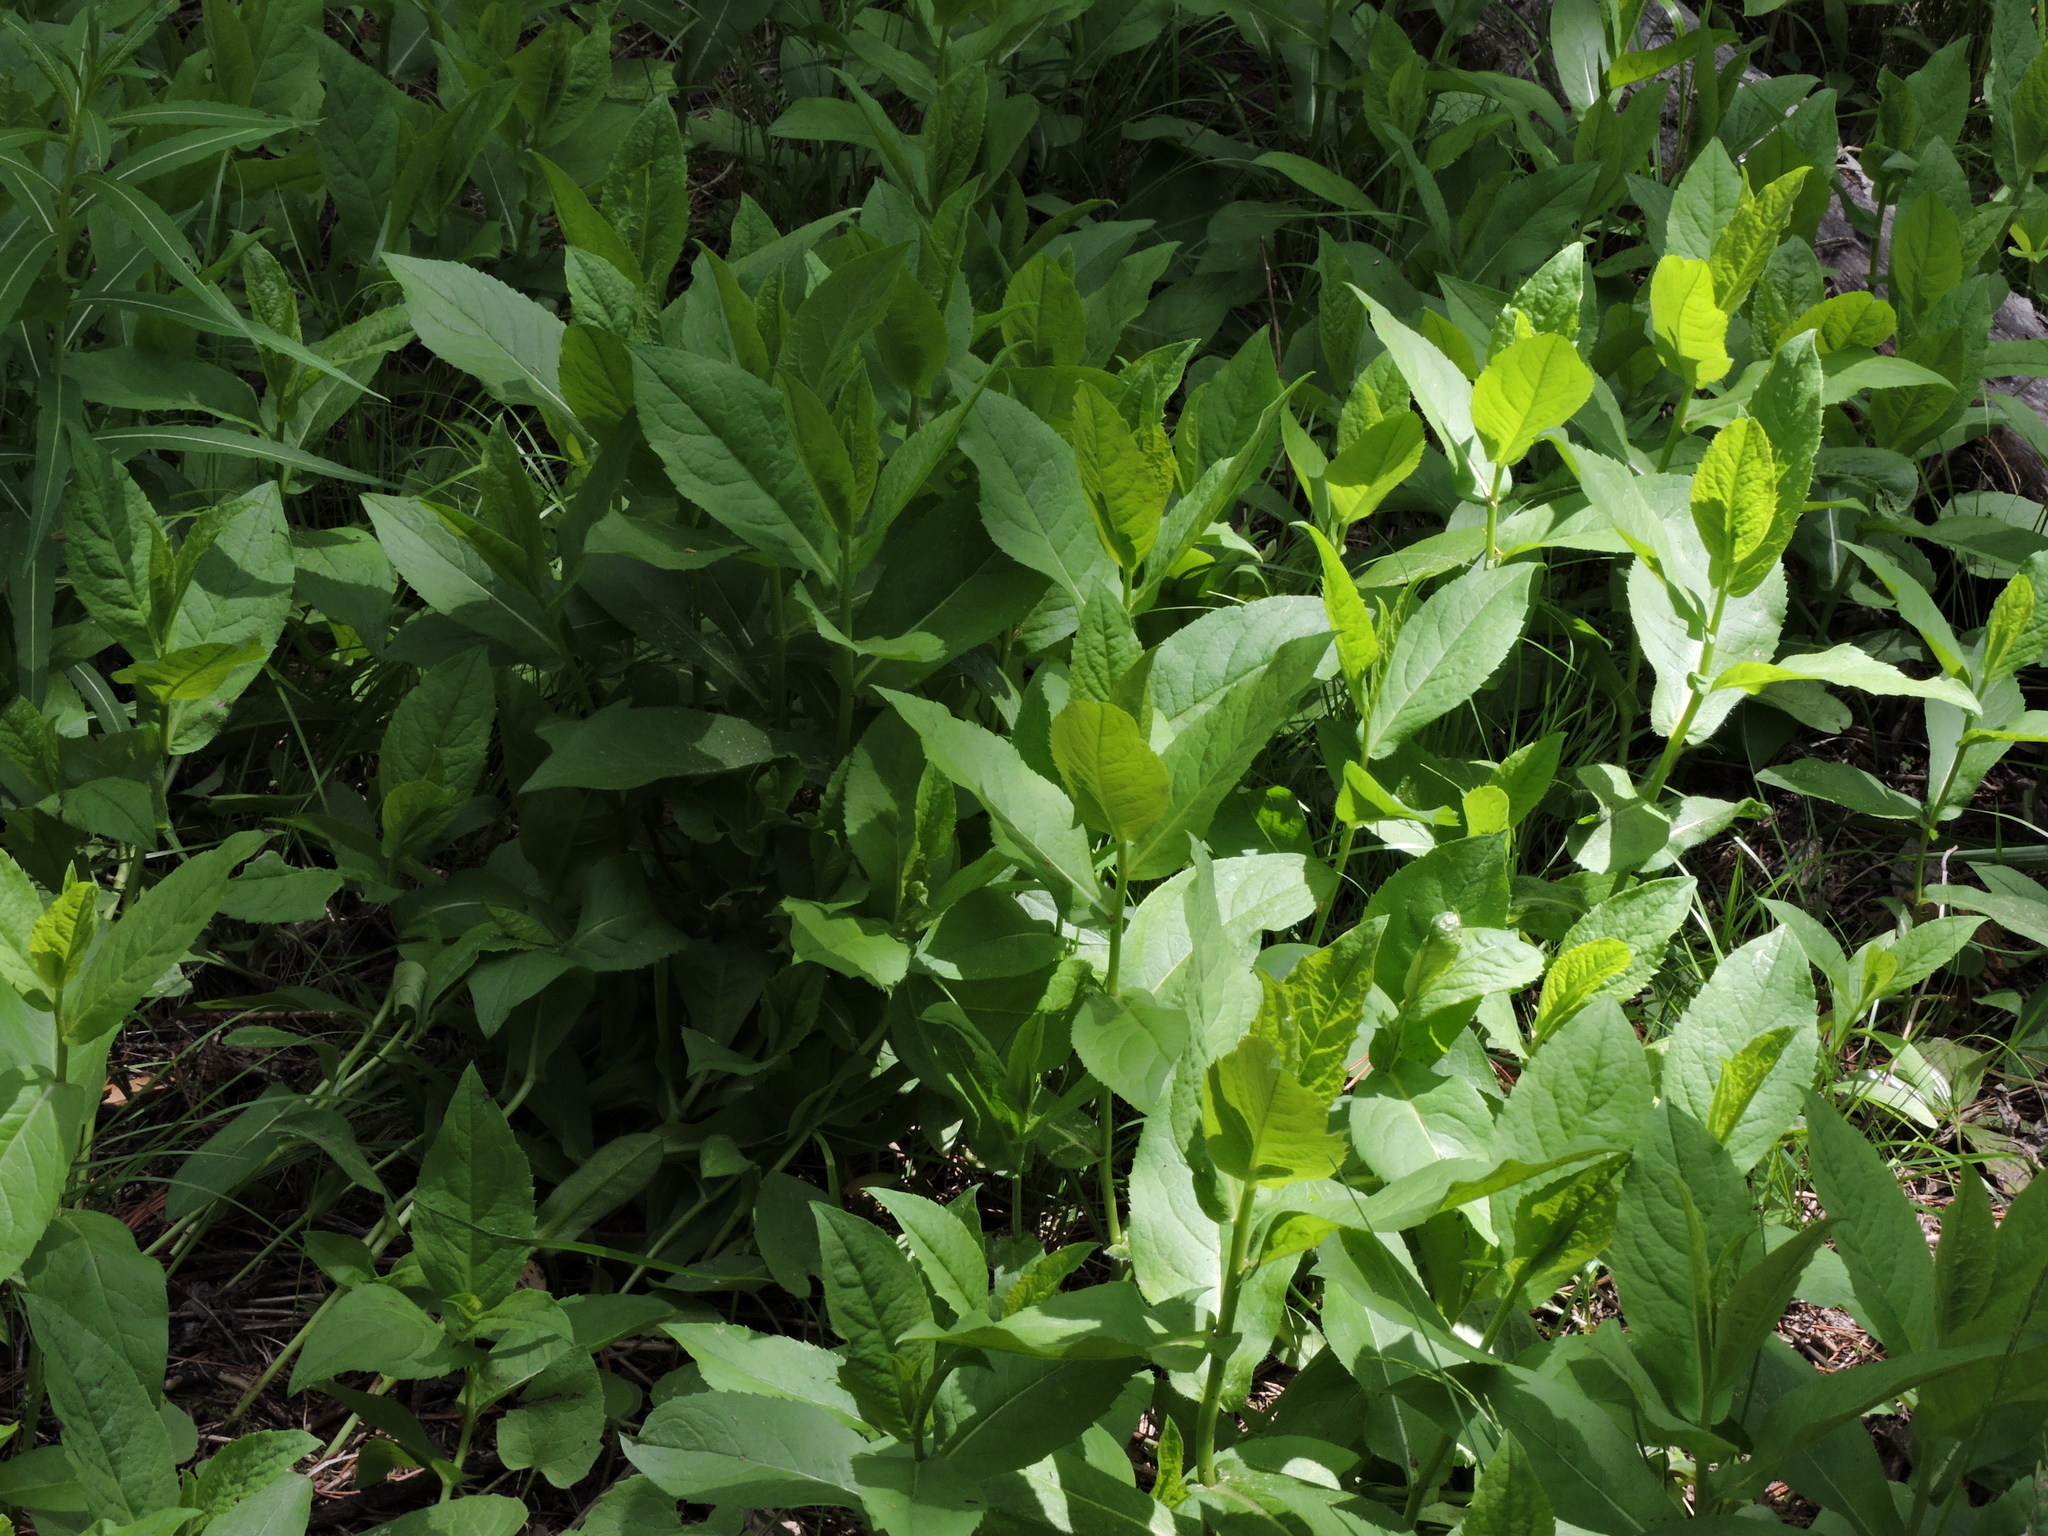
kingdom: Plantae
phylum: Tracheophyta
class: Magnoliopsida
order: Asterales
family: Asteraceae
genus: Eurybia
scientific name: Eurybia conspicua
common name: Showy aster
